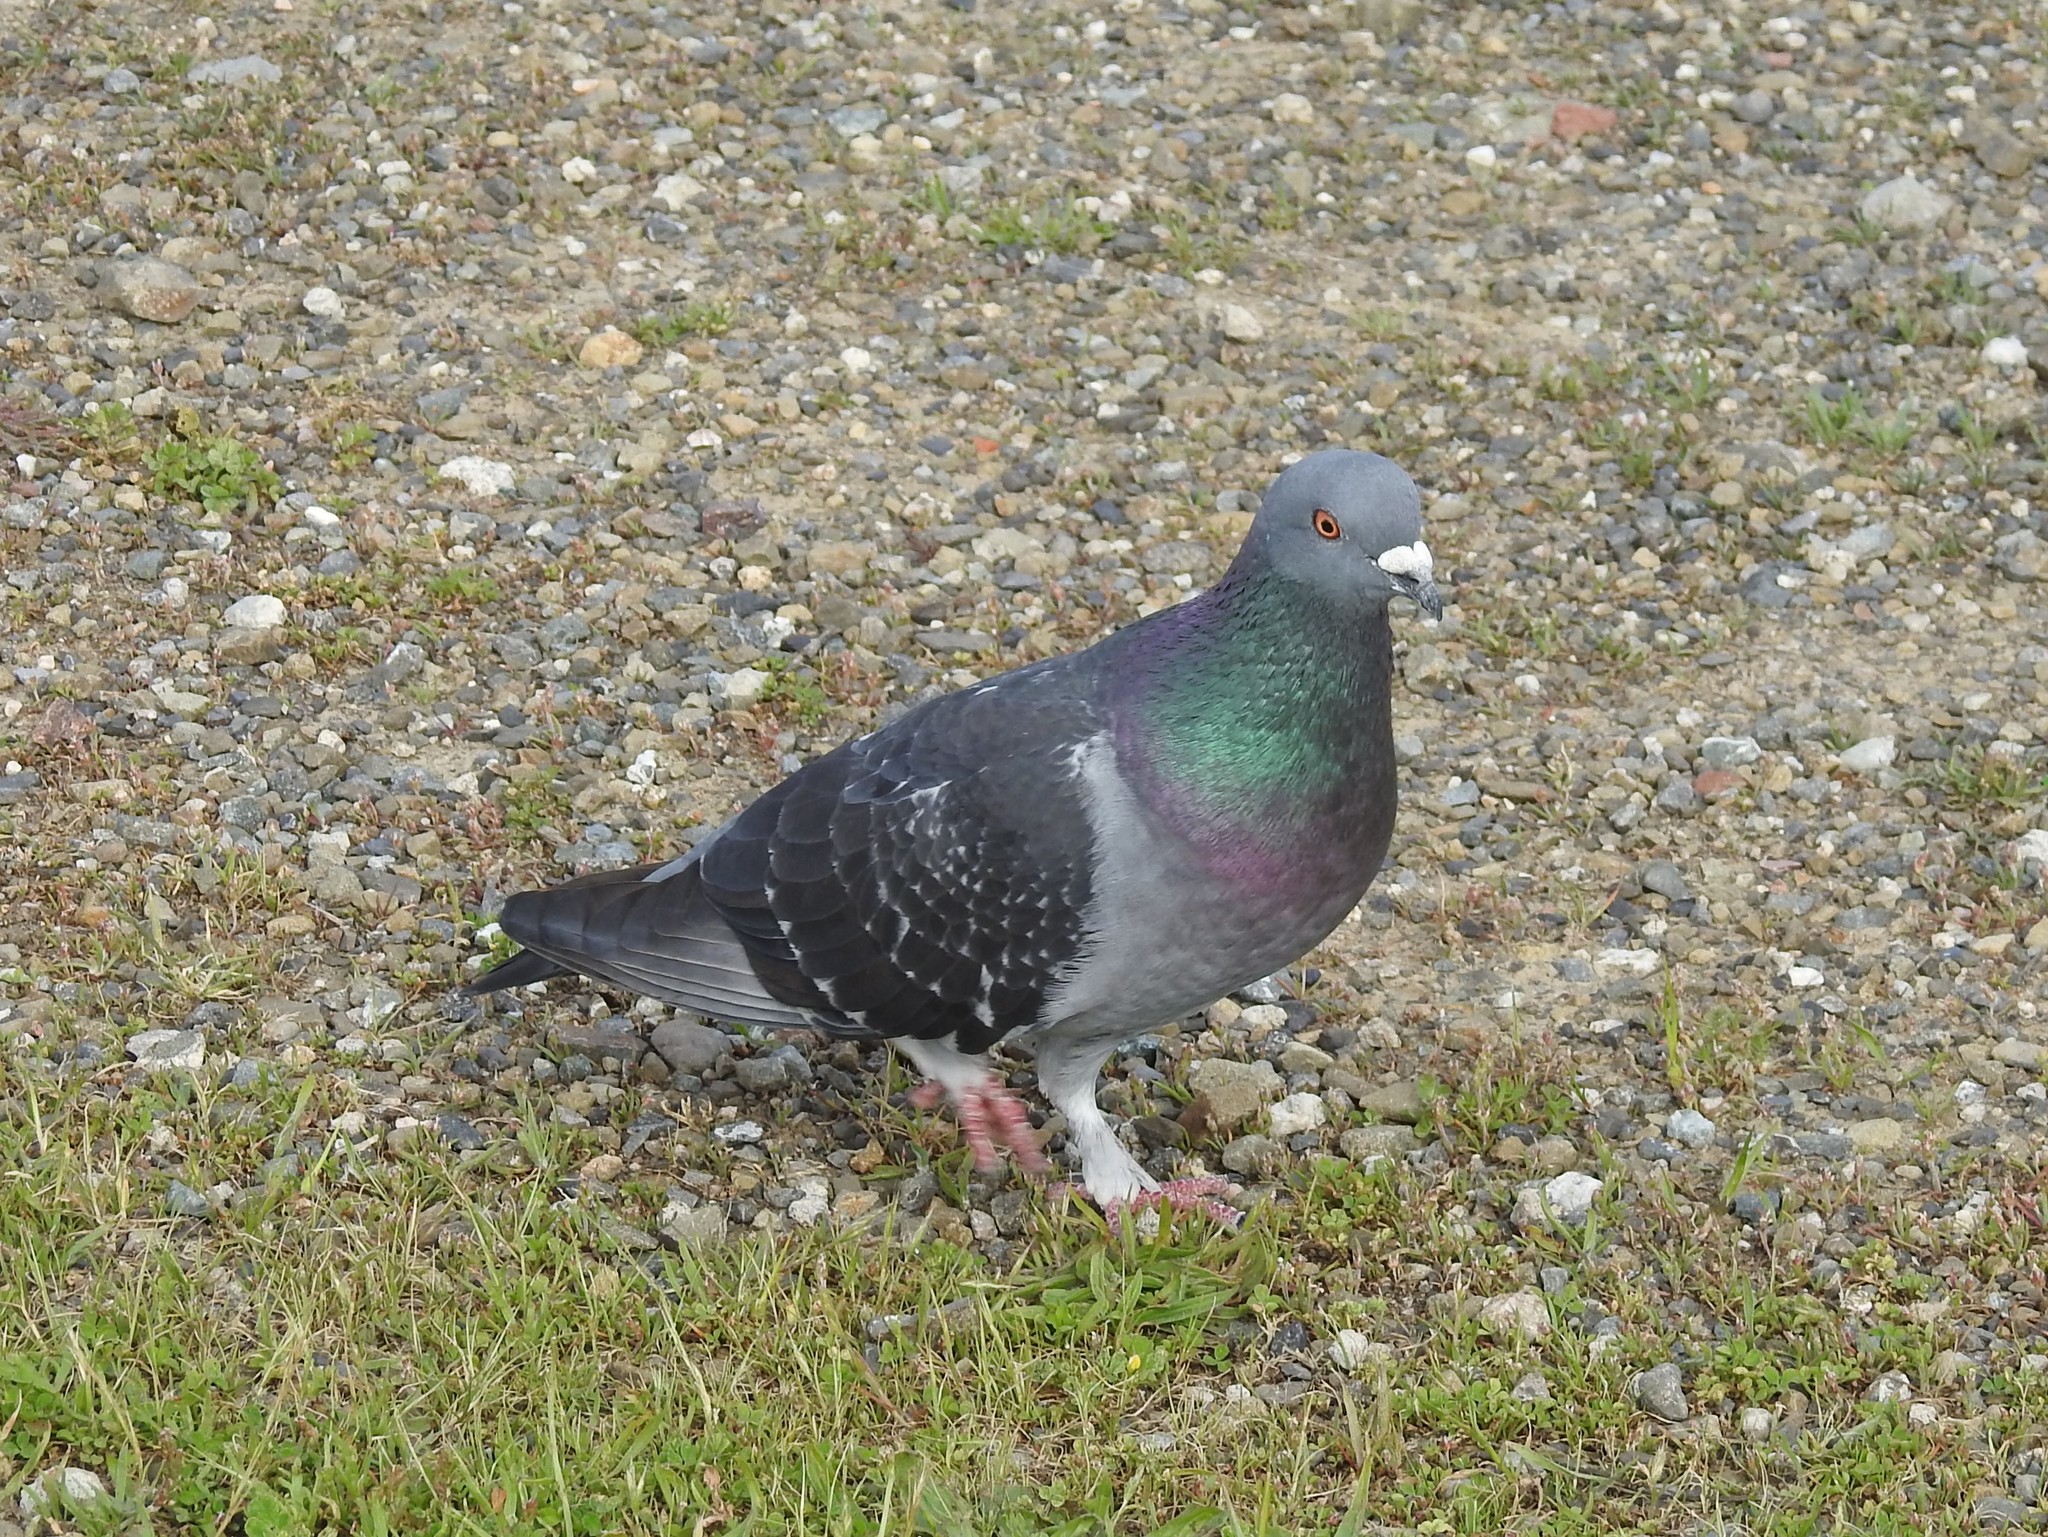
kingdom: Animalia
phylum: Chordata
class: Aves
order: Columbiformes
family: Columbidae
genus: Columba
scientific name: Columba livia
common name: Rock pigeon
